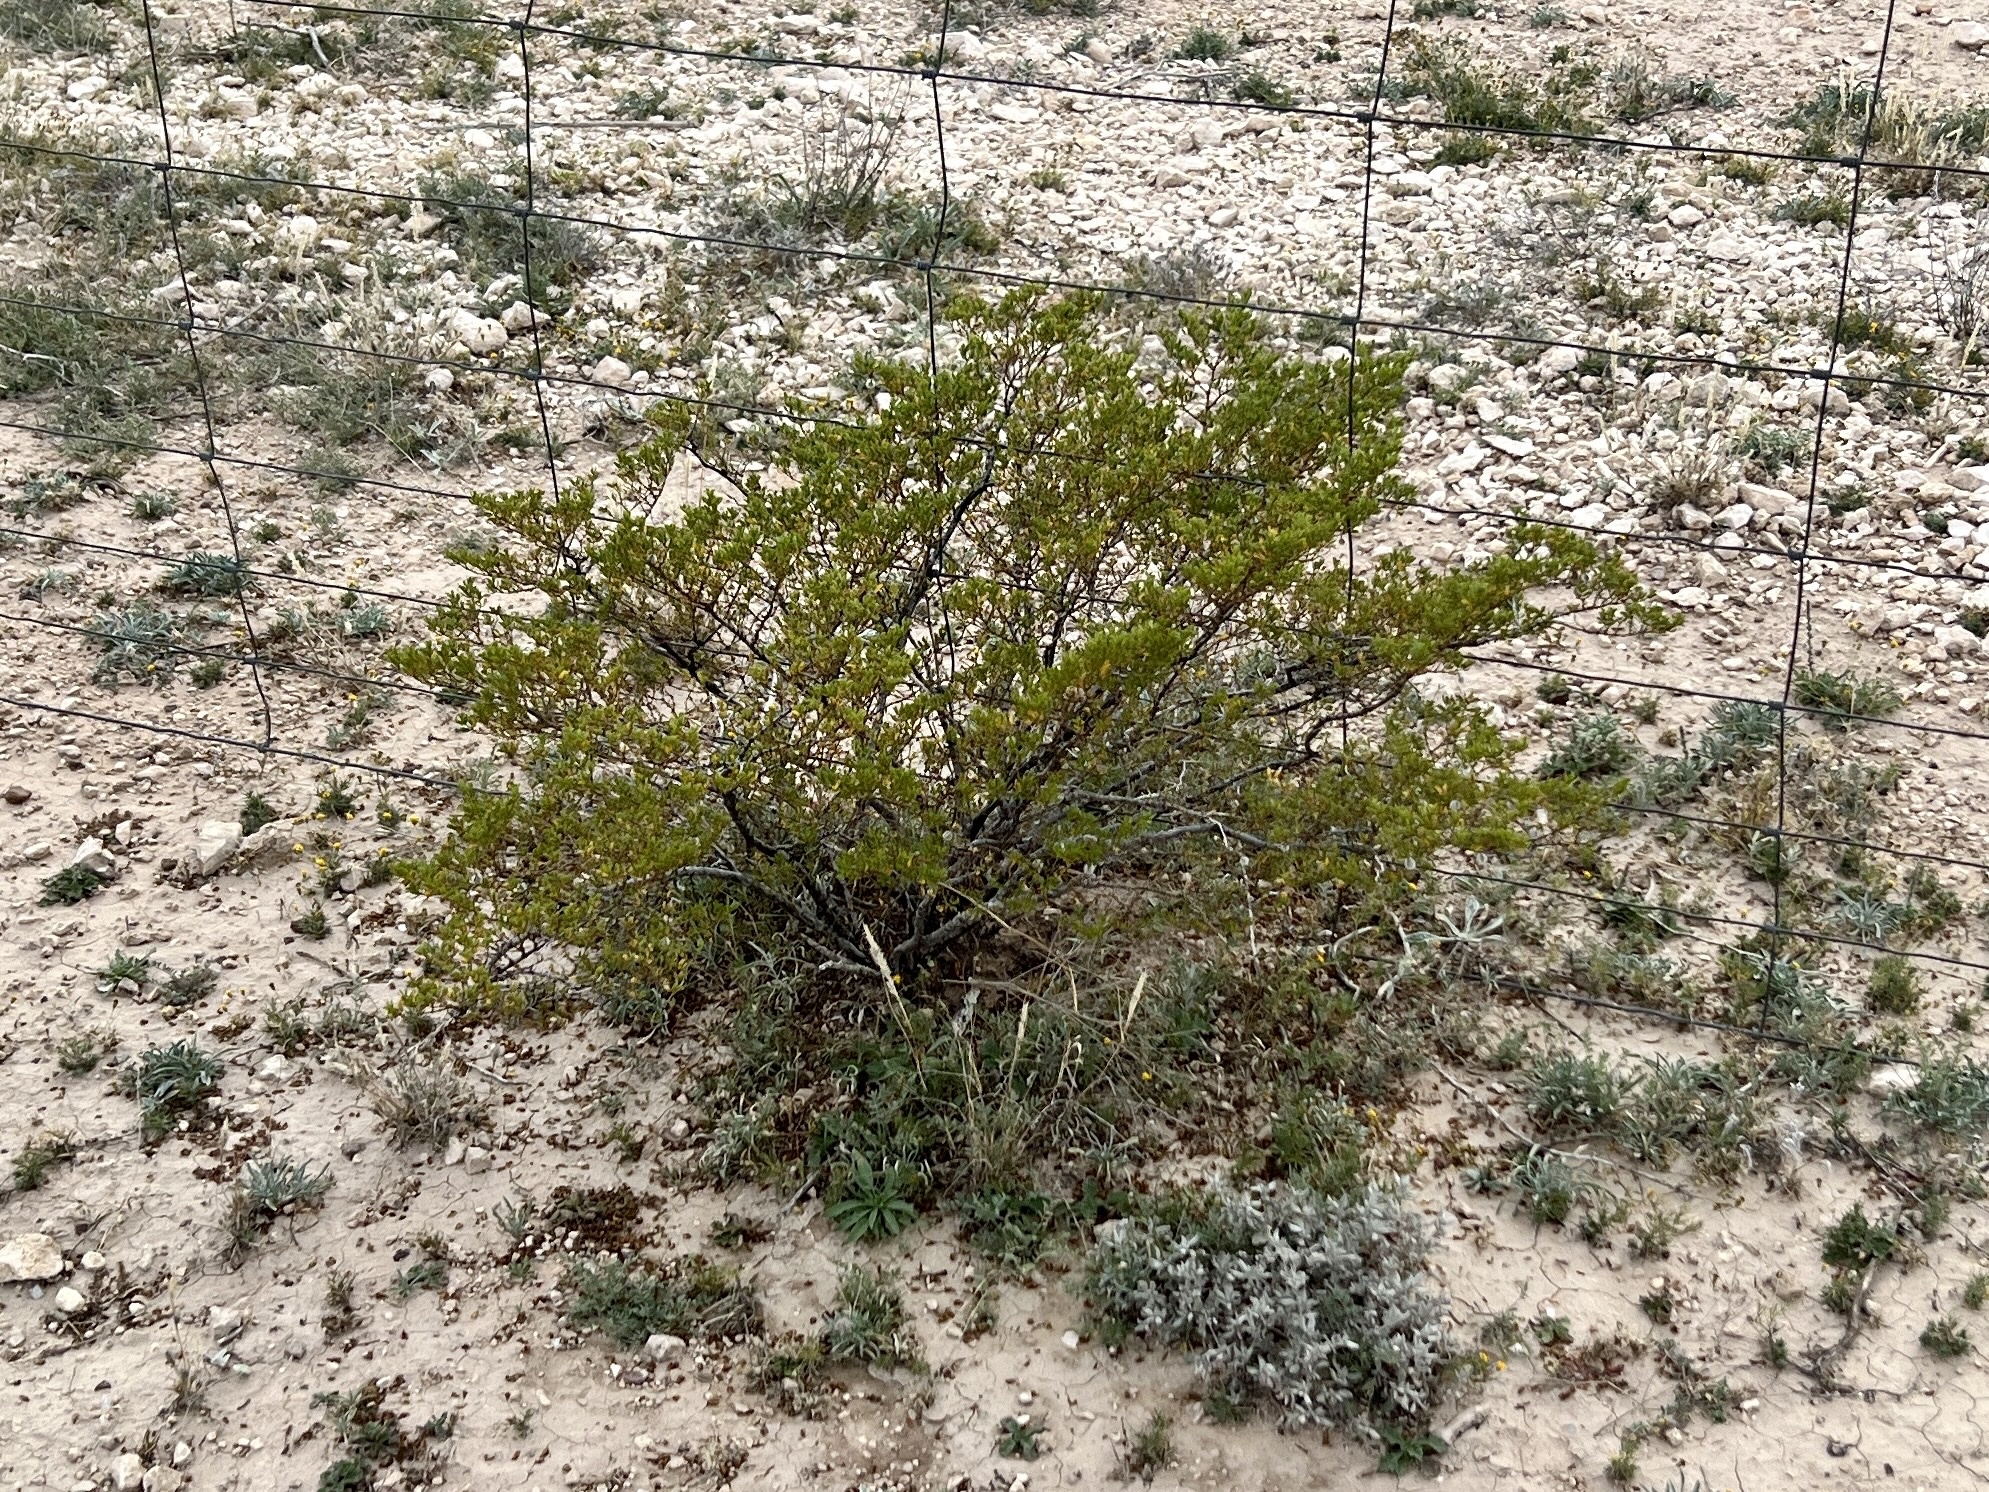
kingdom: Plantae
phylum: Tracheophyta
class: Magnoliopsida
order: Zygophyllales
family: Zygophyllaceae
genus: Larrea
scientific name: Larrea tridentata
